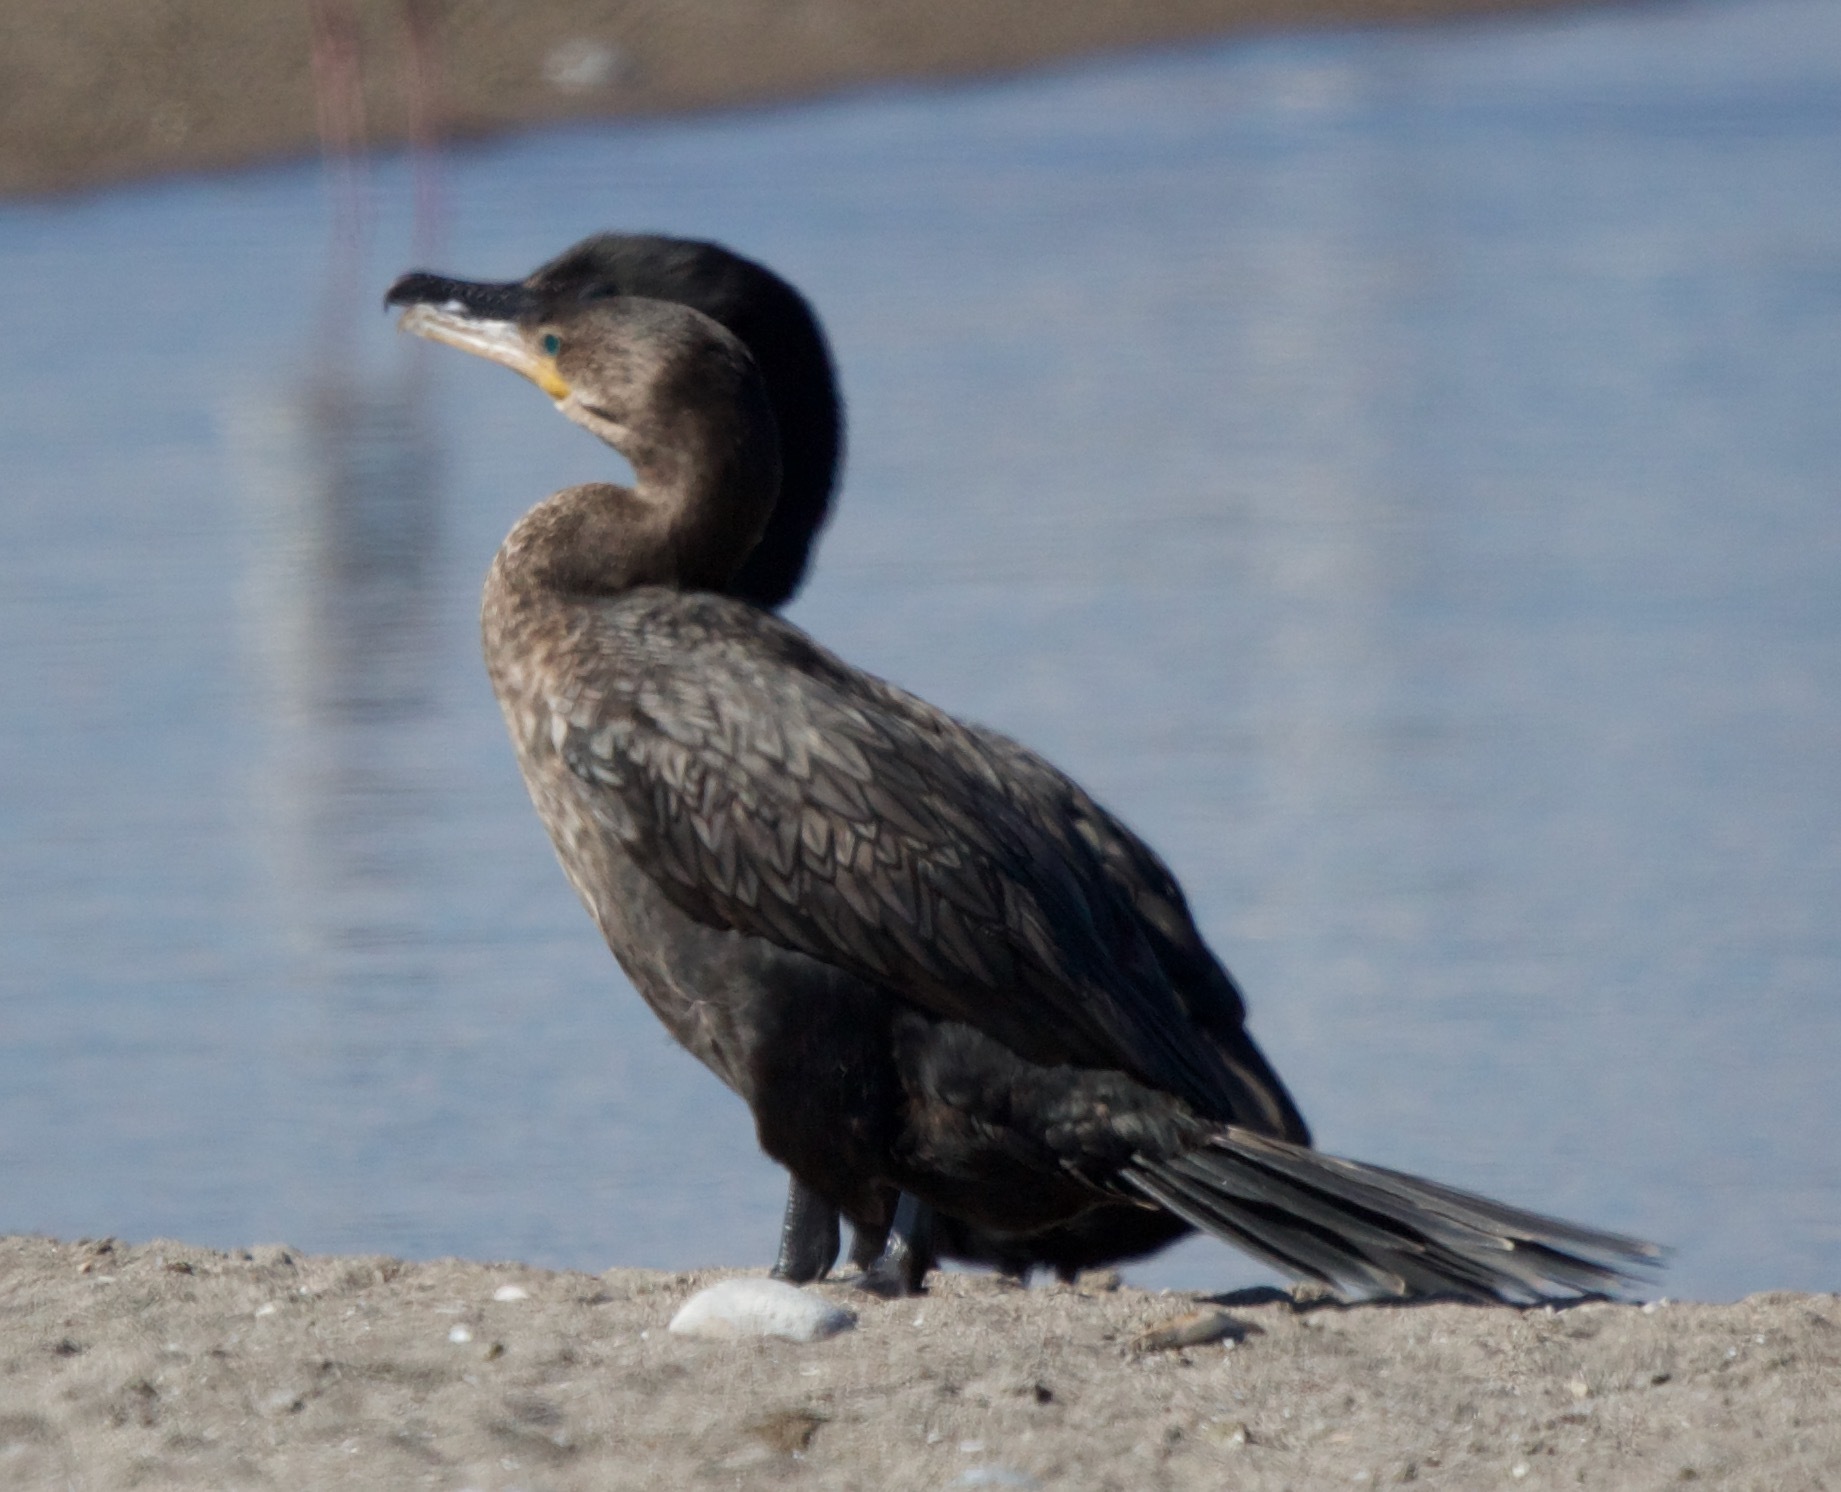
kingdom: Animalia
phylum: Chordata
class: Aves
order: Suliformes
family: Phalacrocoracidae
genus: Phalacrocorax
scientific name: Phalacrocorax brasilianus
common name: Neotropic cormorant
